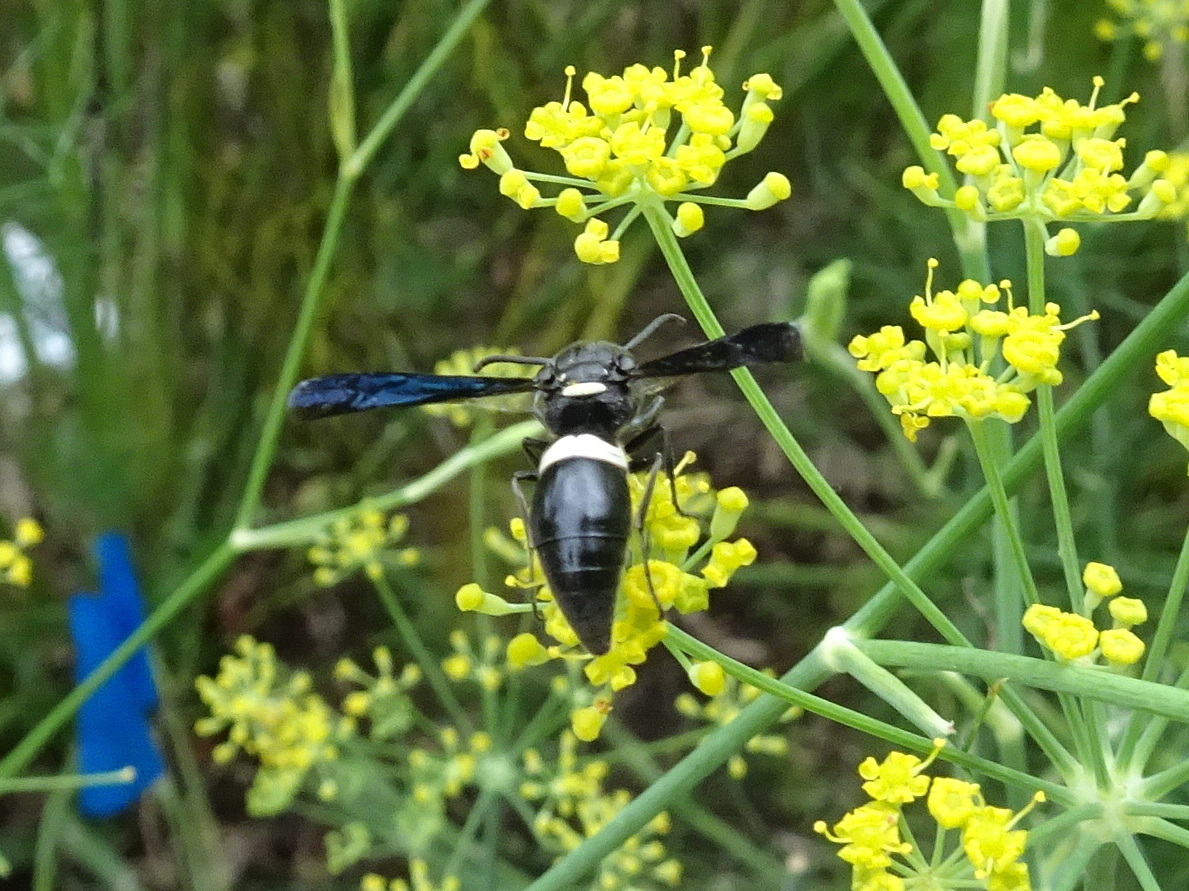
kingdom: Animalia
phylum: Arthropoda
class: Insecta
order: Hymenoptera
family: Eumenidae
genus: Monobia
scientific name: Monobia quadridens
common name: Four-toothed mason wasp
